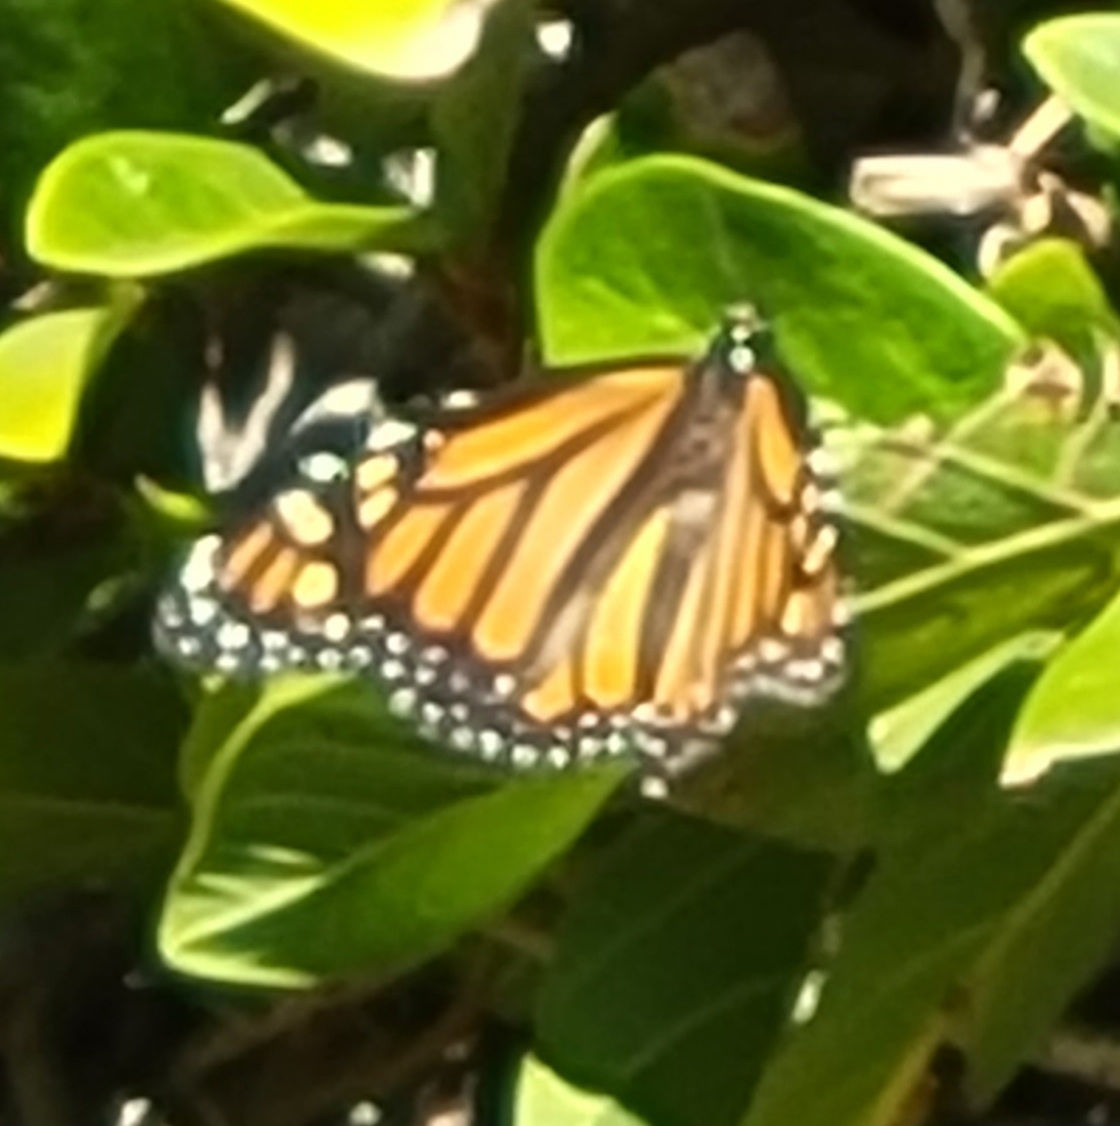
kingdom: Animalia
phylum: Arthropoda
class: Insecta
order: Lepidoptera
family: Nymphalidae
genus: Danaus
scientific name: Danaus plexippus
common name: Monarch
